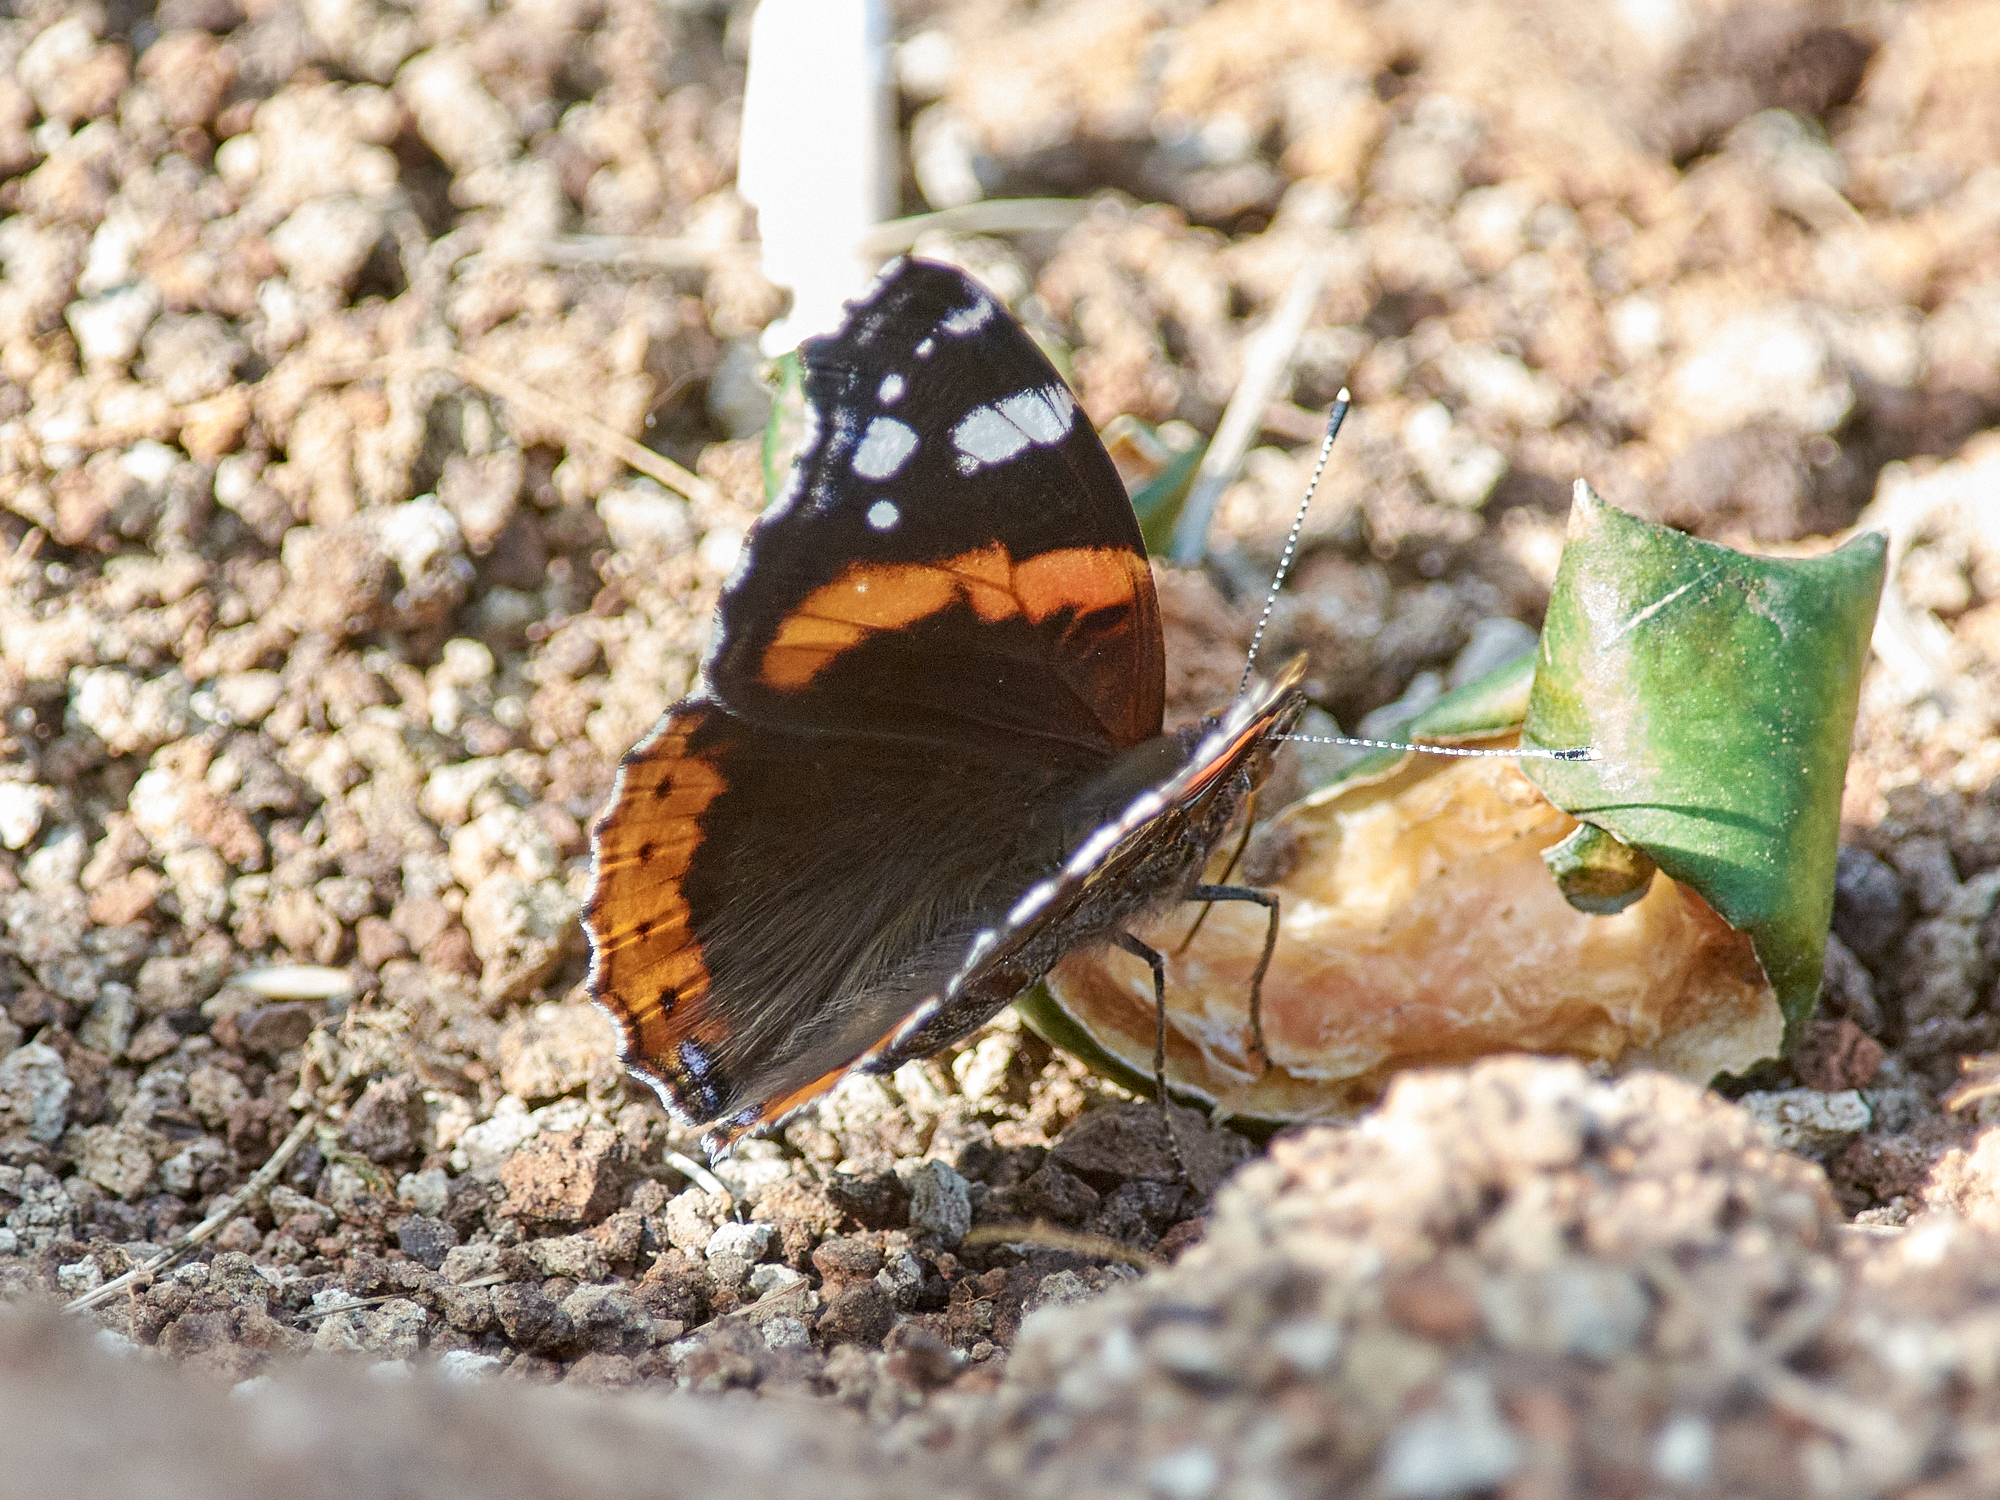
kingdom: Animalia
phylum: Arthropoda
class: Insecta
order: Lepidoptera
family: Nymphalidae
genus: Vanessa
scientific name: Vanessa atalanta
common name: Red admiral
